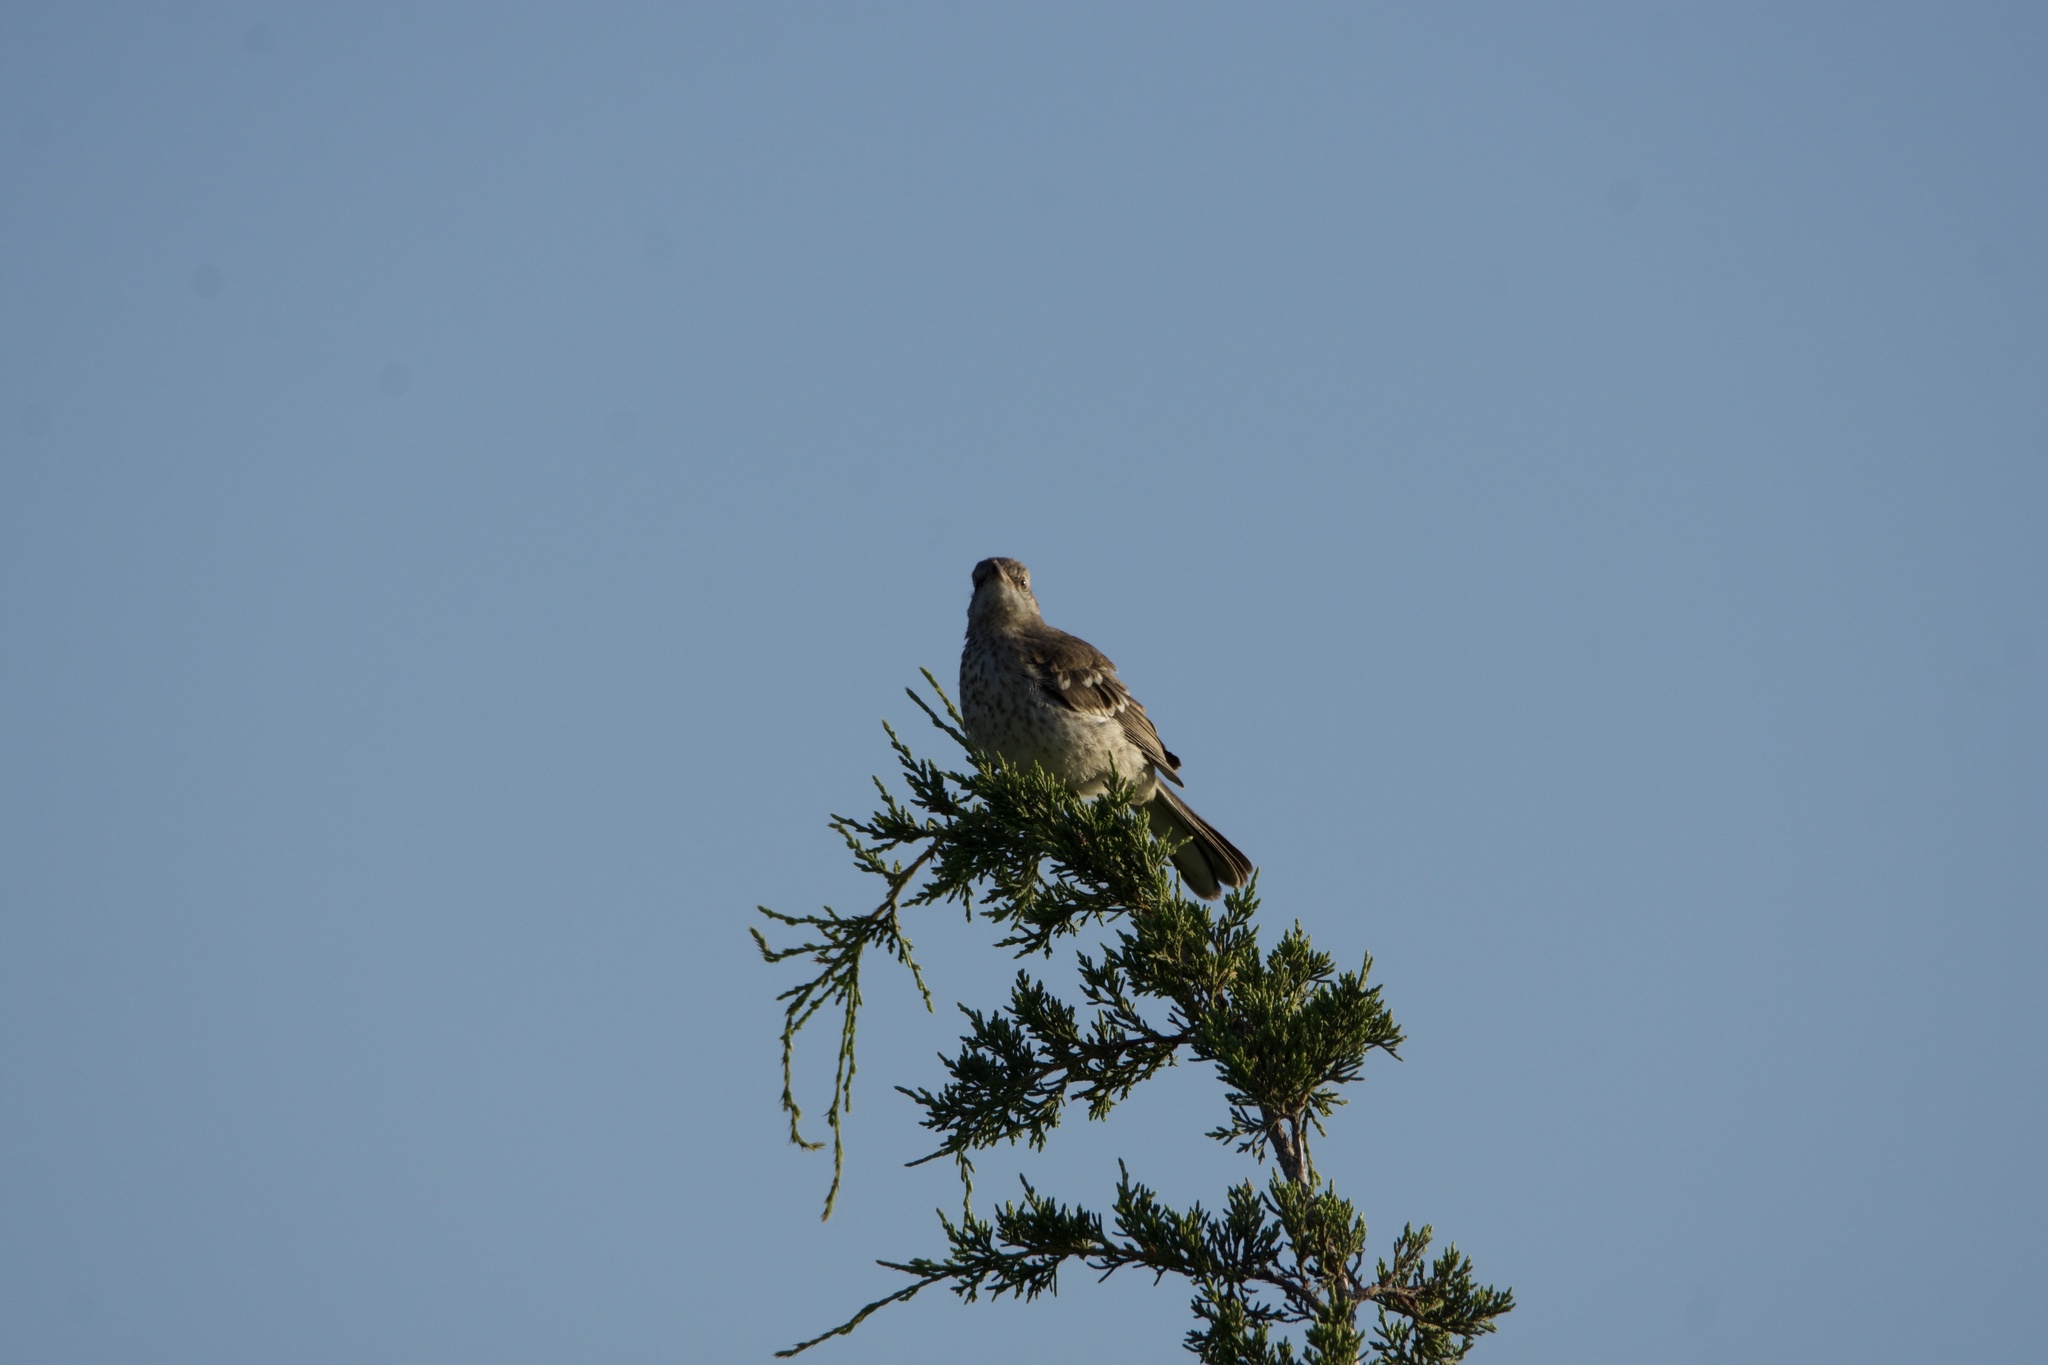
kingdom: Animalia
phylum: Chordata
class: Aves
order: Passeriformes
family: Mimidae
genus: Mimus
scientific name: Mimus polyglottos
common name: Northern mockingbird
